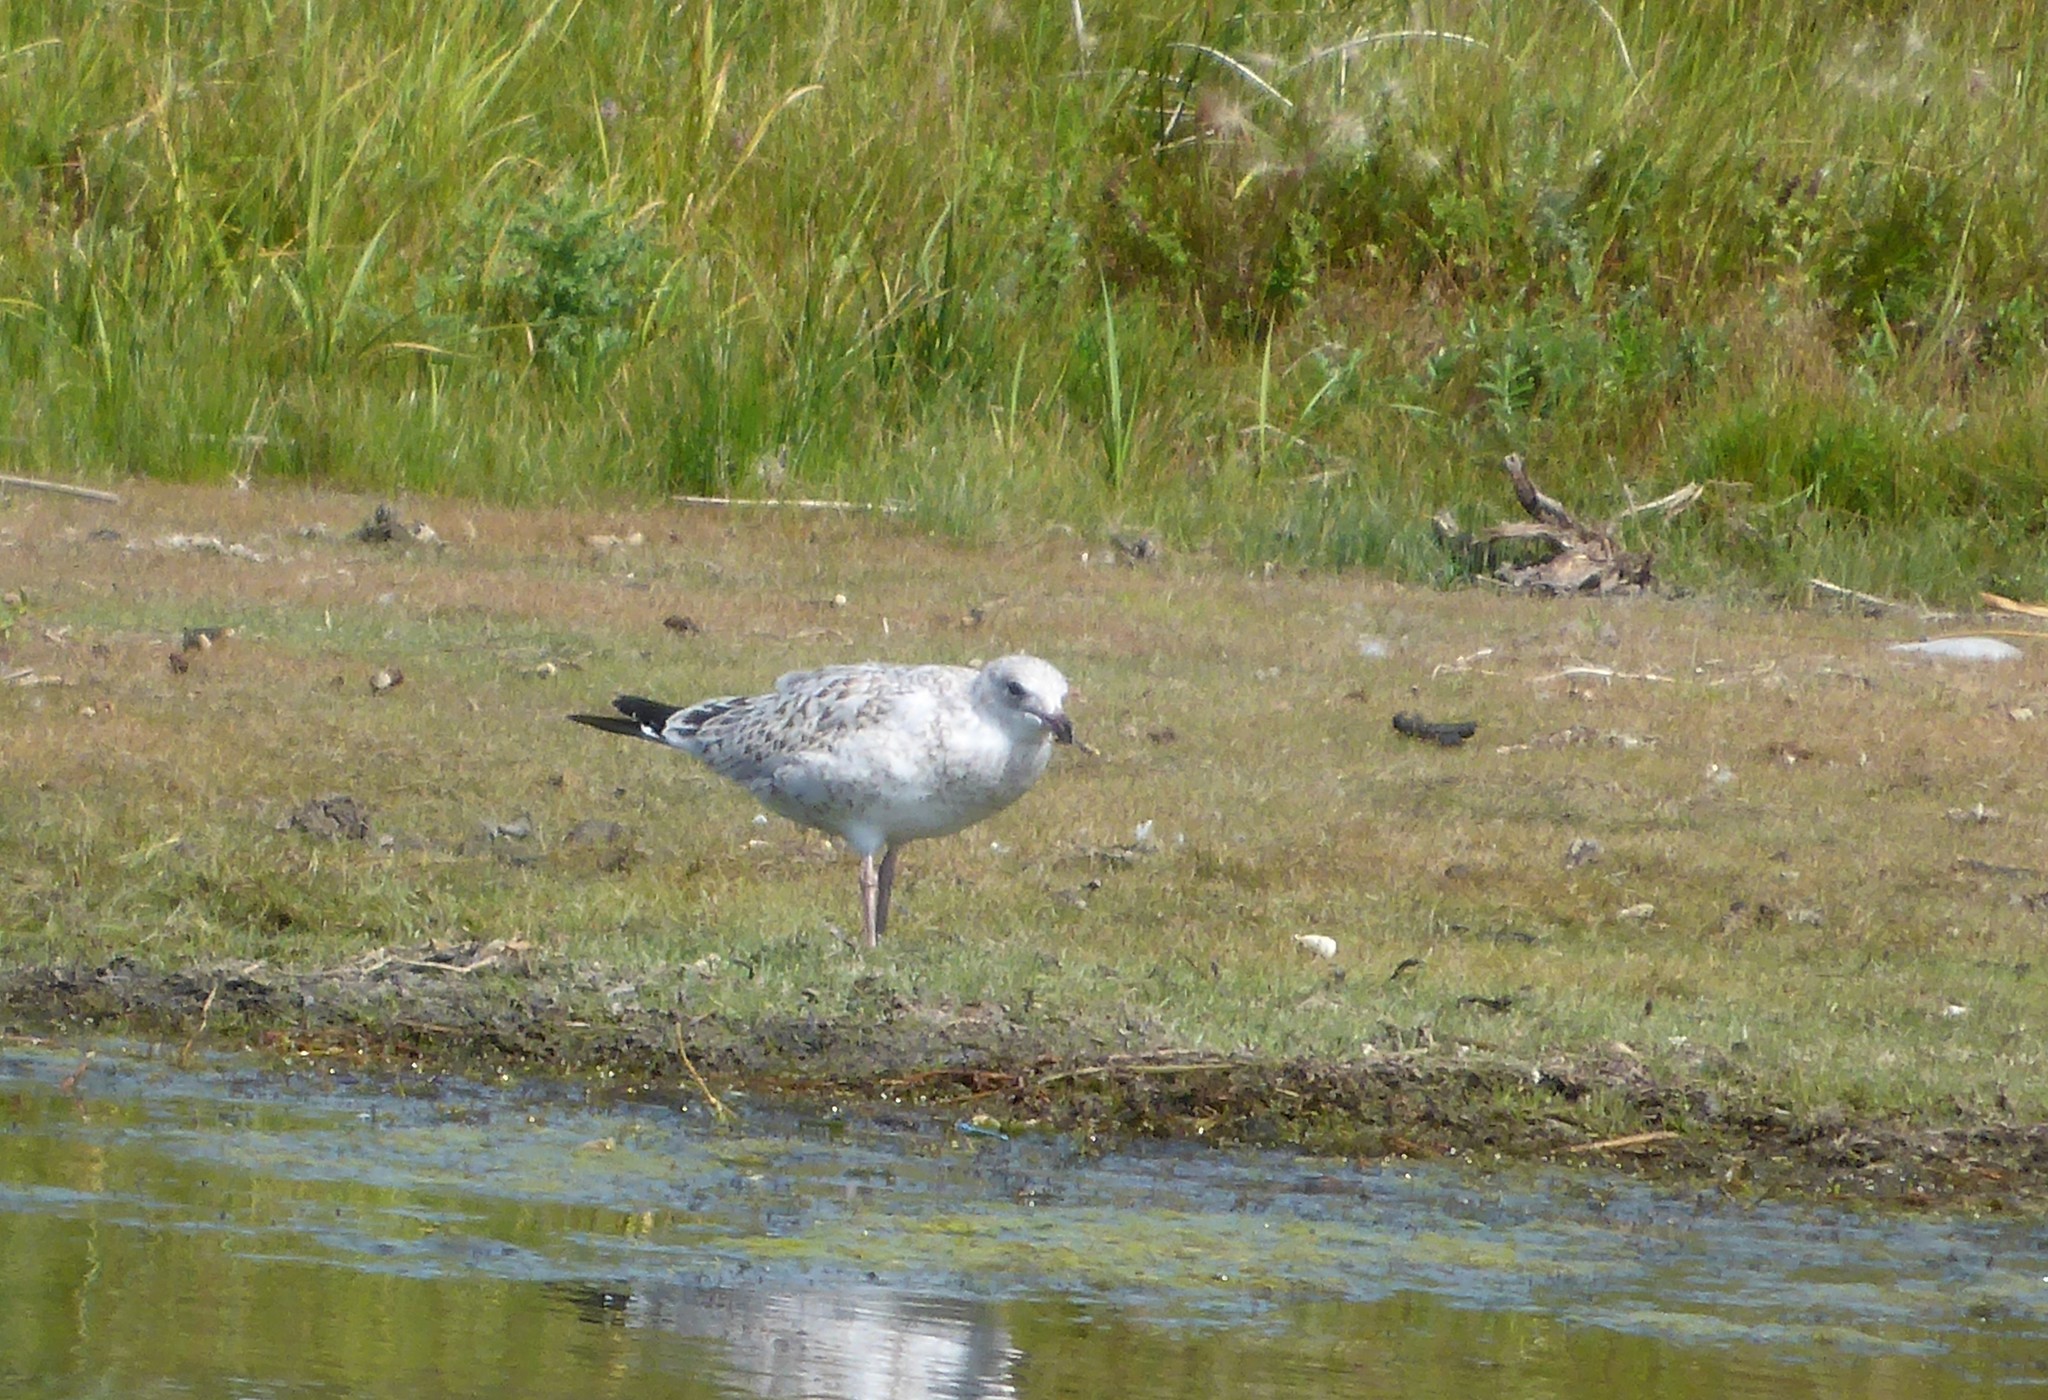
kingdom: Animalia
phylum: Chordata
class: Aves
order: Charadriiformes
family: Laridae
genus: Larus
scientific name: Larus delawarensis
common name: Ring-billed gull
